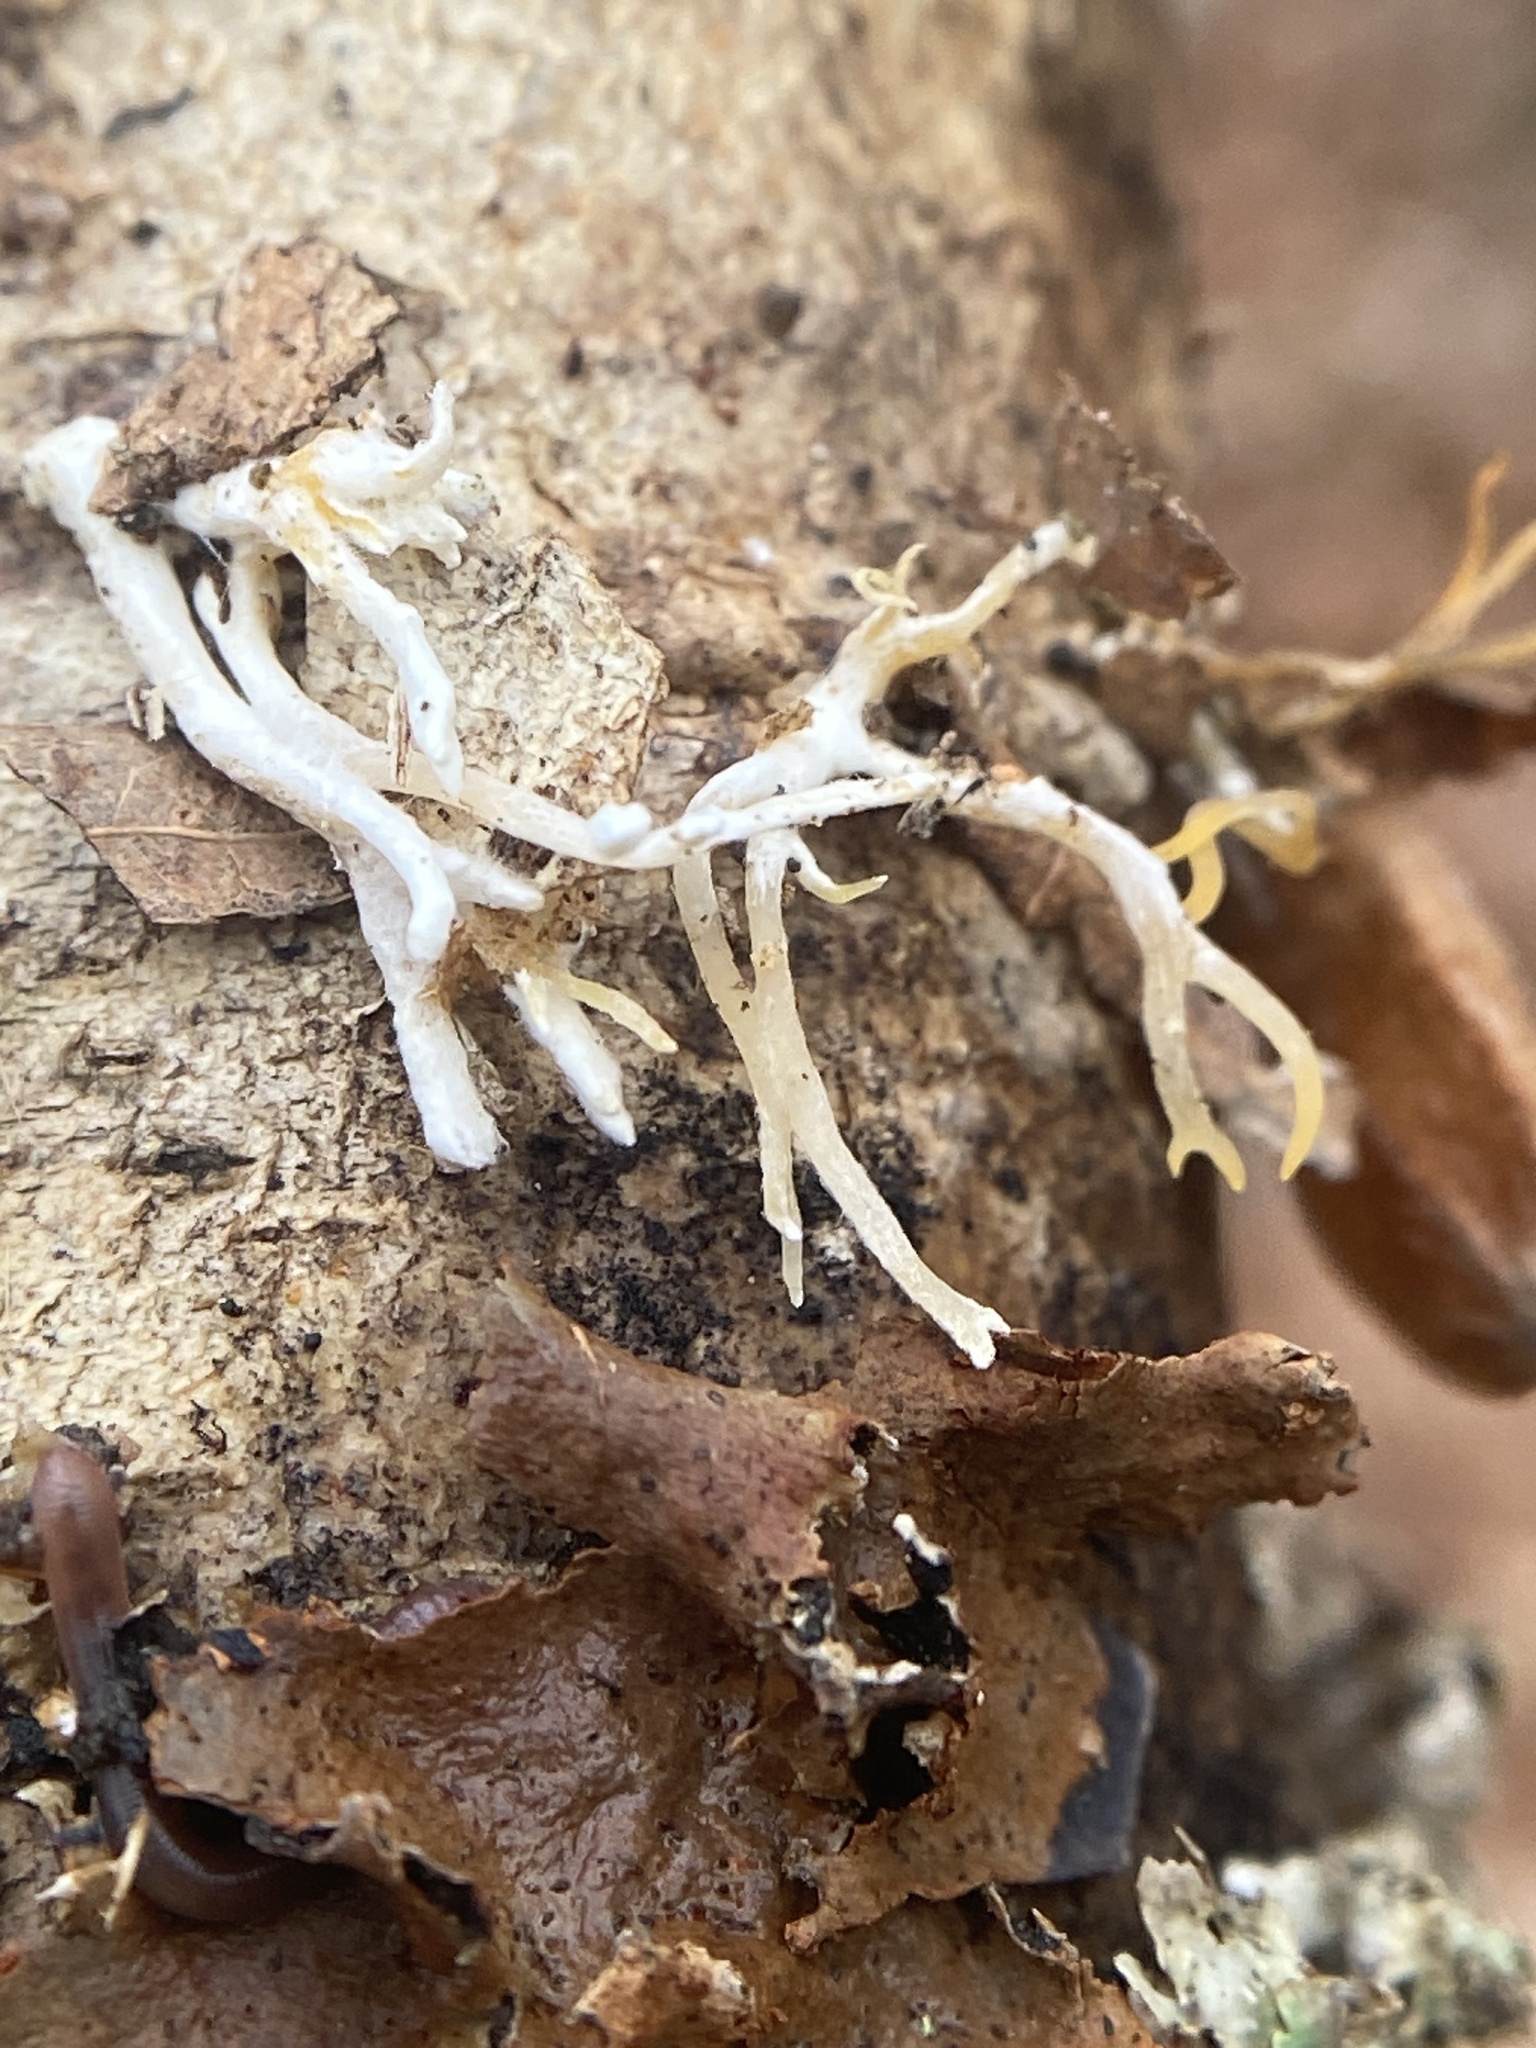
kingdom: Fungi
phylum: Basidiomycota
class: Dacrymycetes
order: Dacrymycetales
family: Dacrymycetaceae
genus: Calocera
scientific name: Calocera cornea
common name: Small stagshorn
